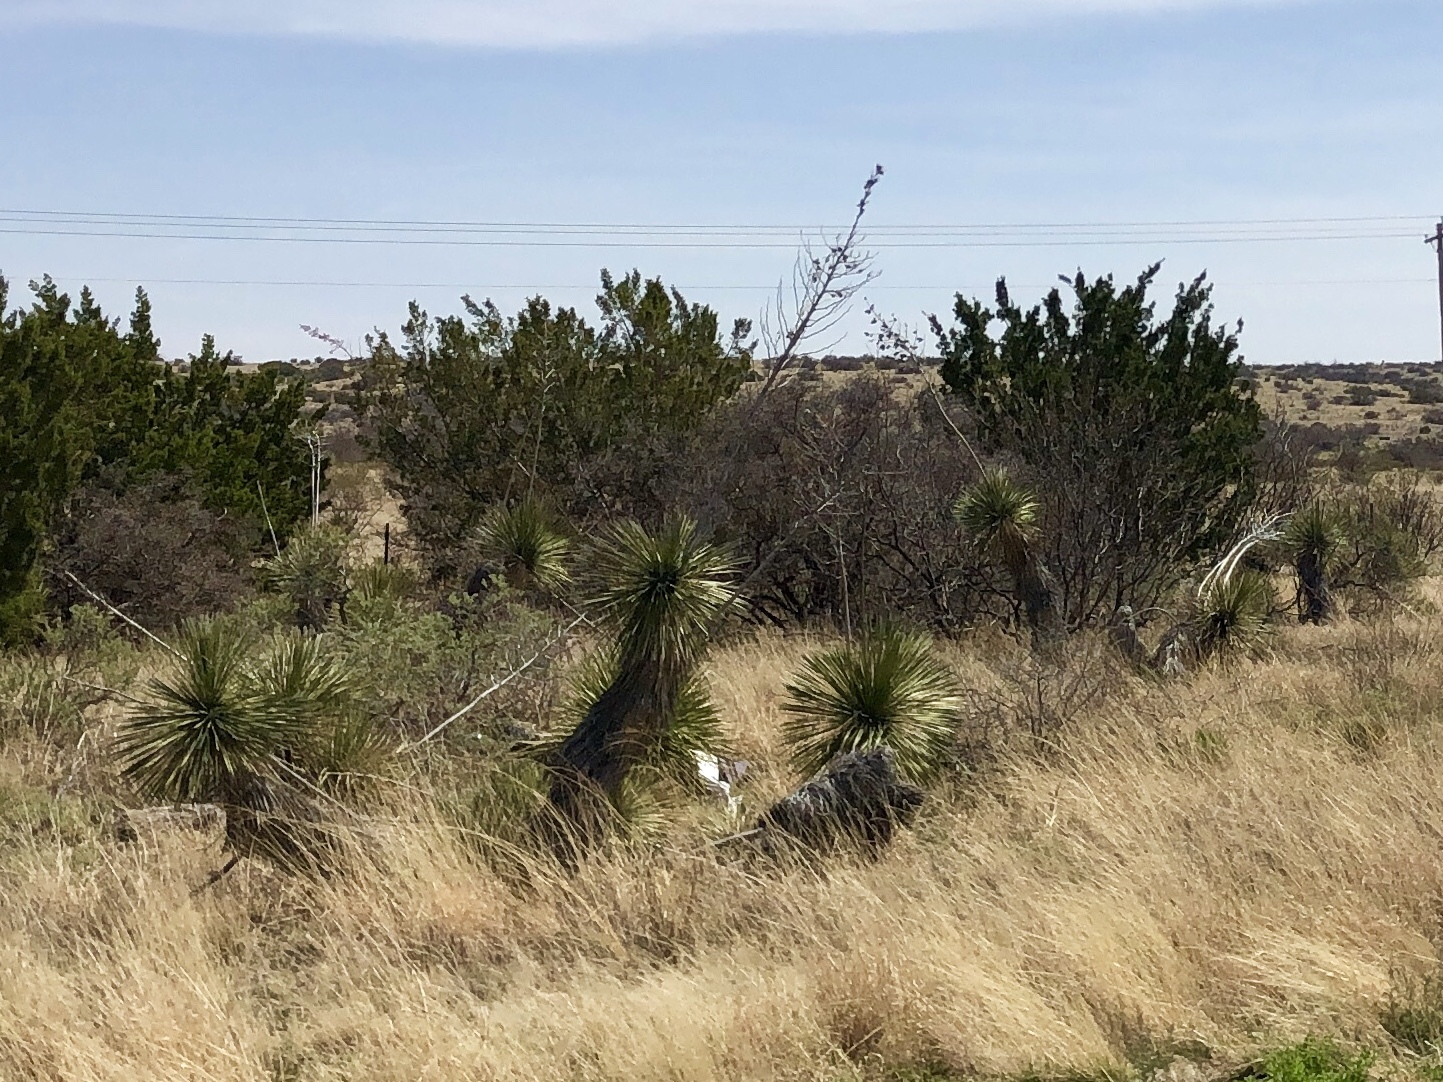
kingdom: Plantae
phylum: Tracheophyta
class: Liliopsida
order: Asparagales
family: Asparagaceae
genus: Yucca
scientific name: Yucca elata
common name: Palmella
